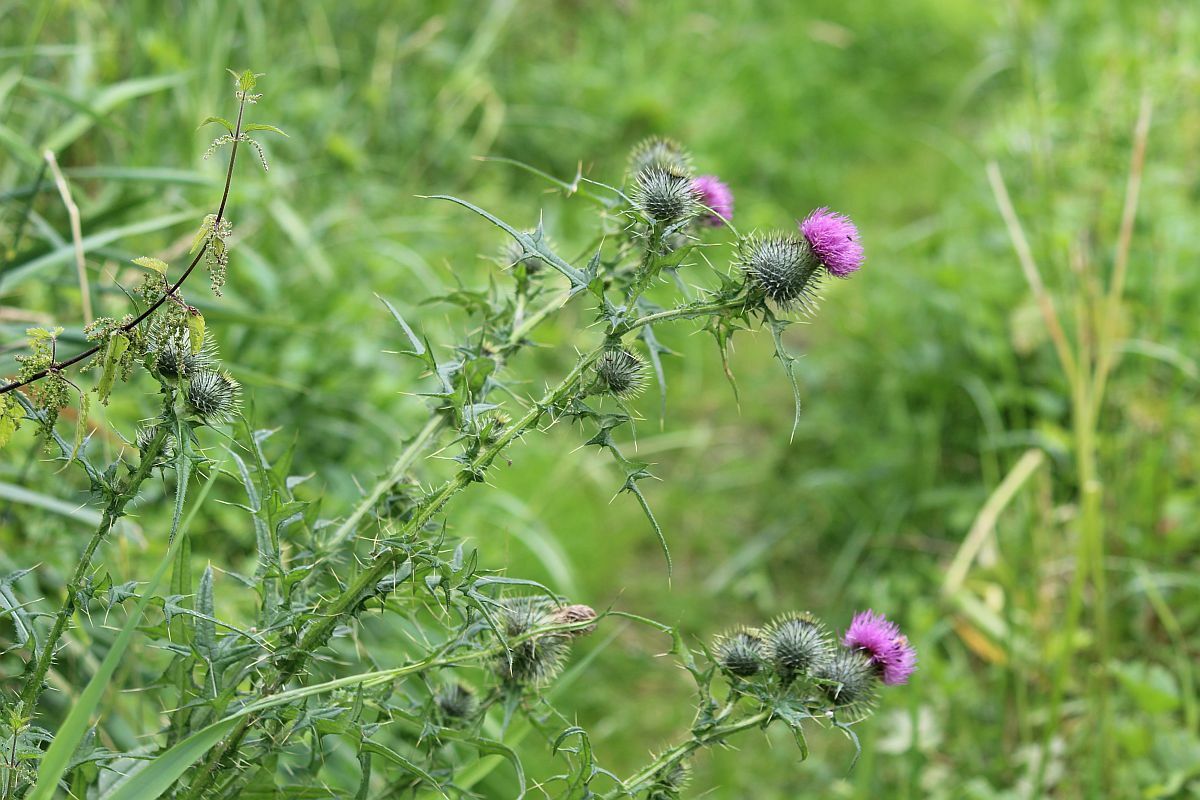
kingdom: Plantae
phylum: Tracheophyta
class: Magnoliopsida
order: Asterales
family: Asteraceae
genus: Cirsium
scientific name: Cirsium vulgare
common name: Bull thistle
